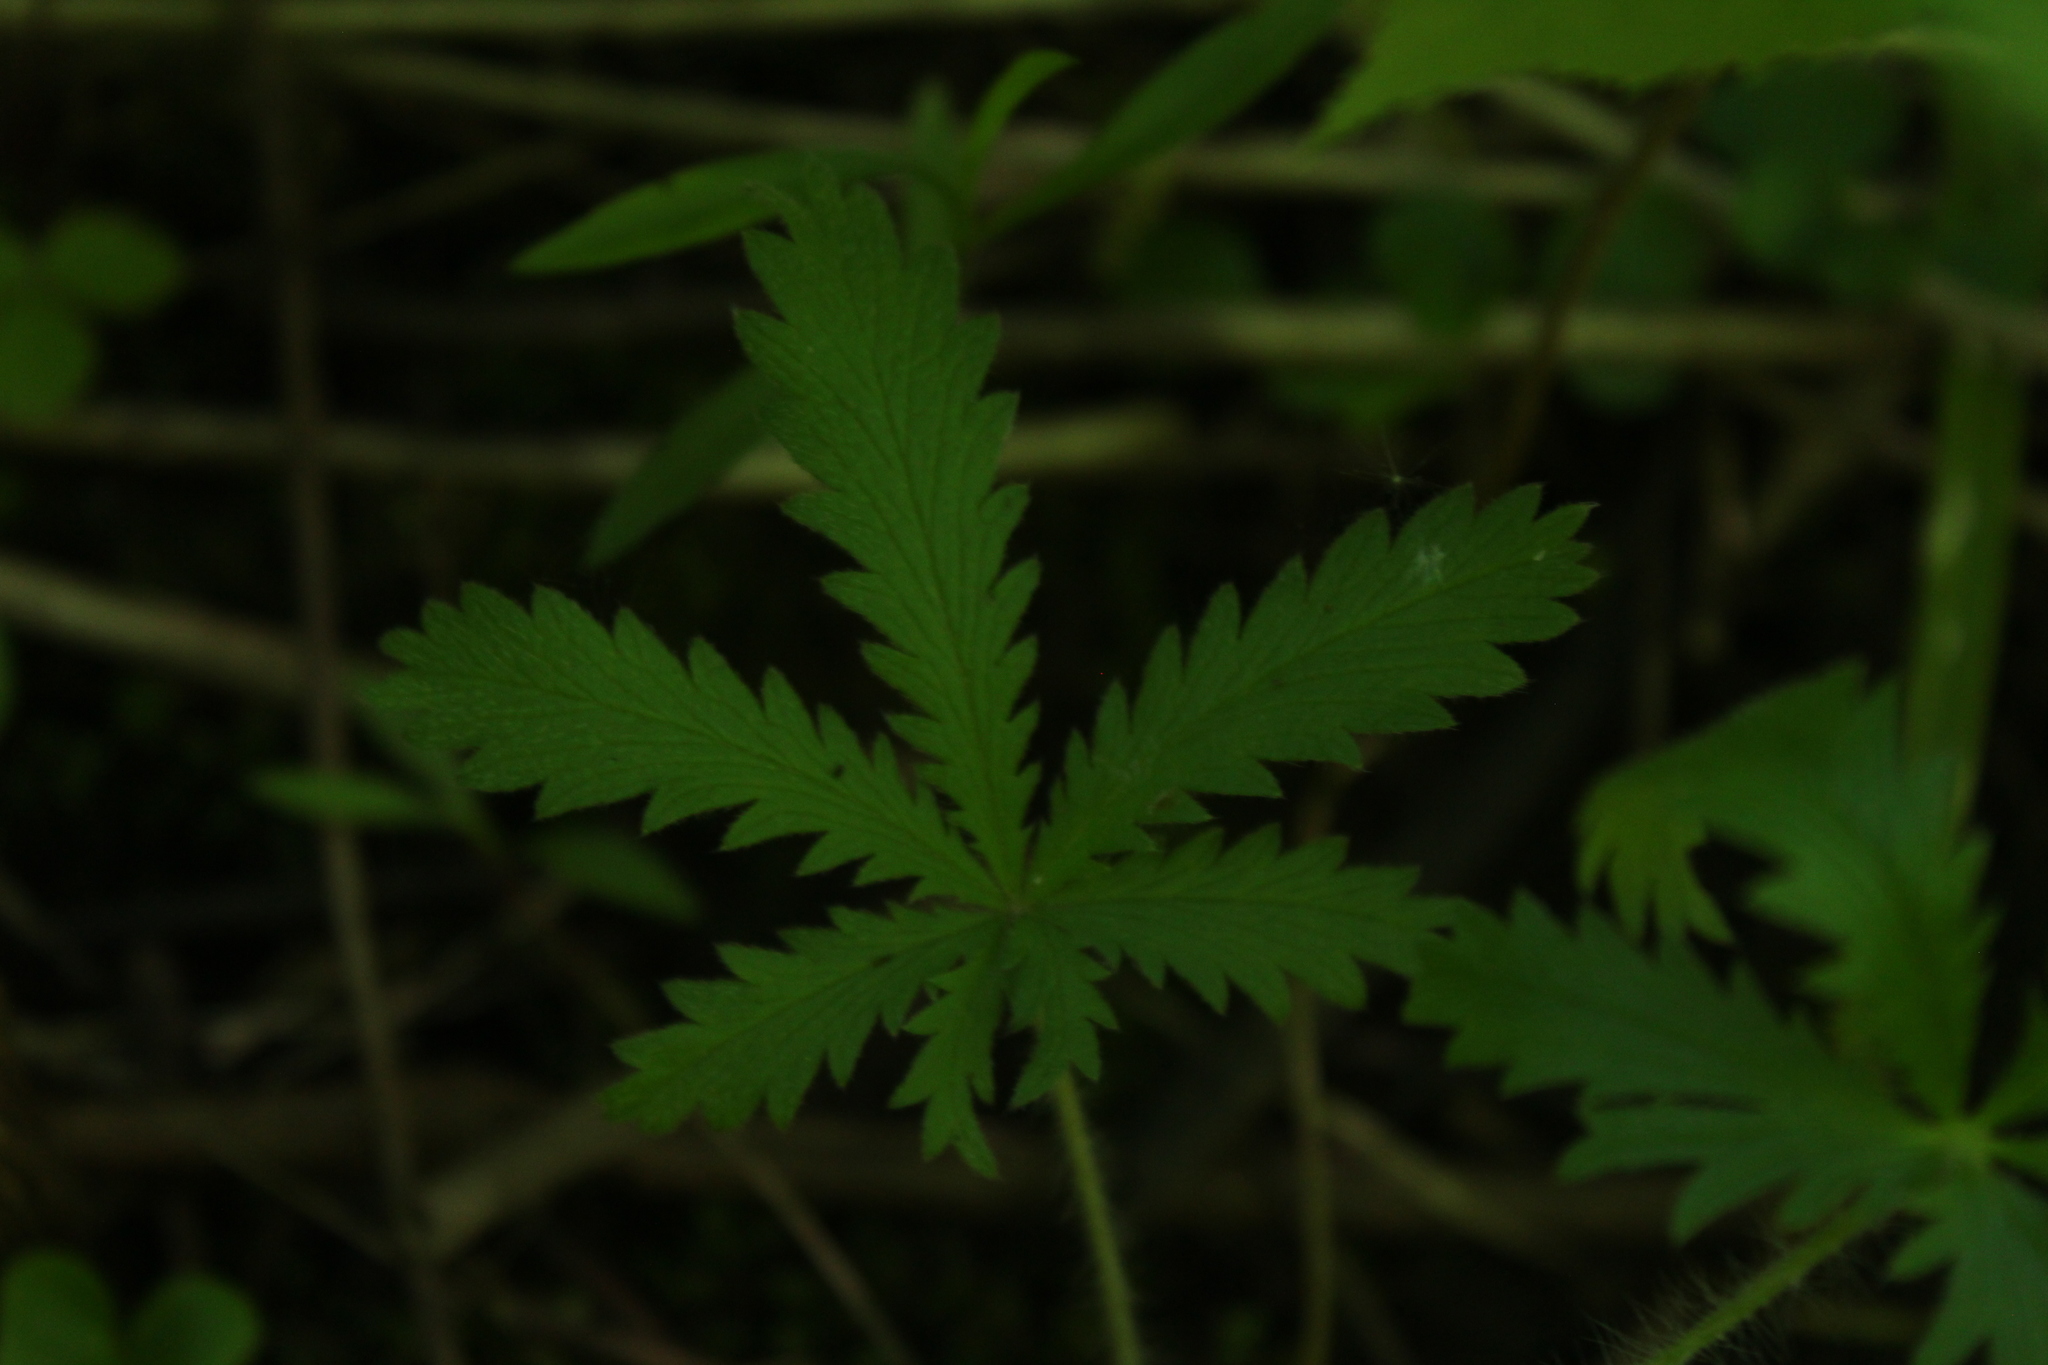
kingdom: Plantae
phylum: Tracheophyta
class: Magnoliopsida
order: Rosales
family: Rosaceae
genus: Potentilla
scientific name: Potentilla recta
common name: Sulphur cinquefoil
